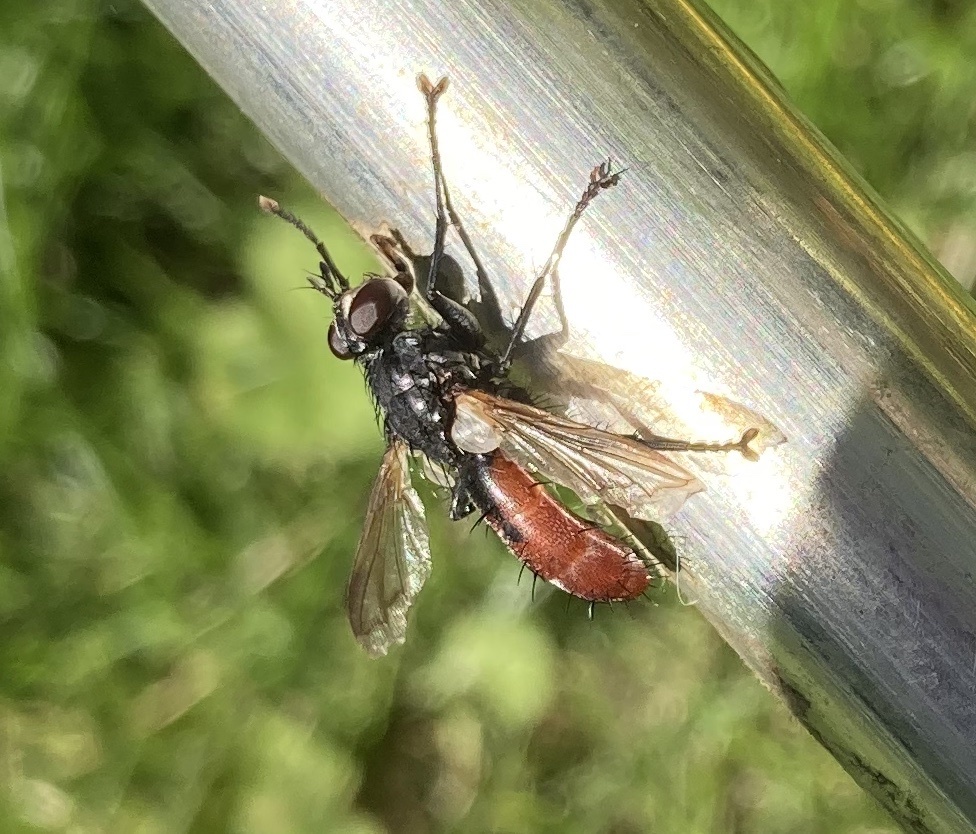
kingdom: Animalia
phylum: Arthropoda
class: Insecta
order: Diptera
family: Tachinidae
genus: Cylindromyia
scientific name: Cylindromyia bicolor
